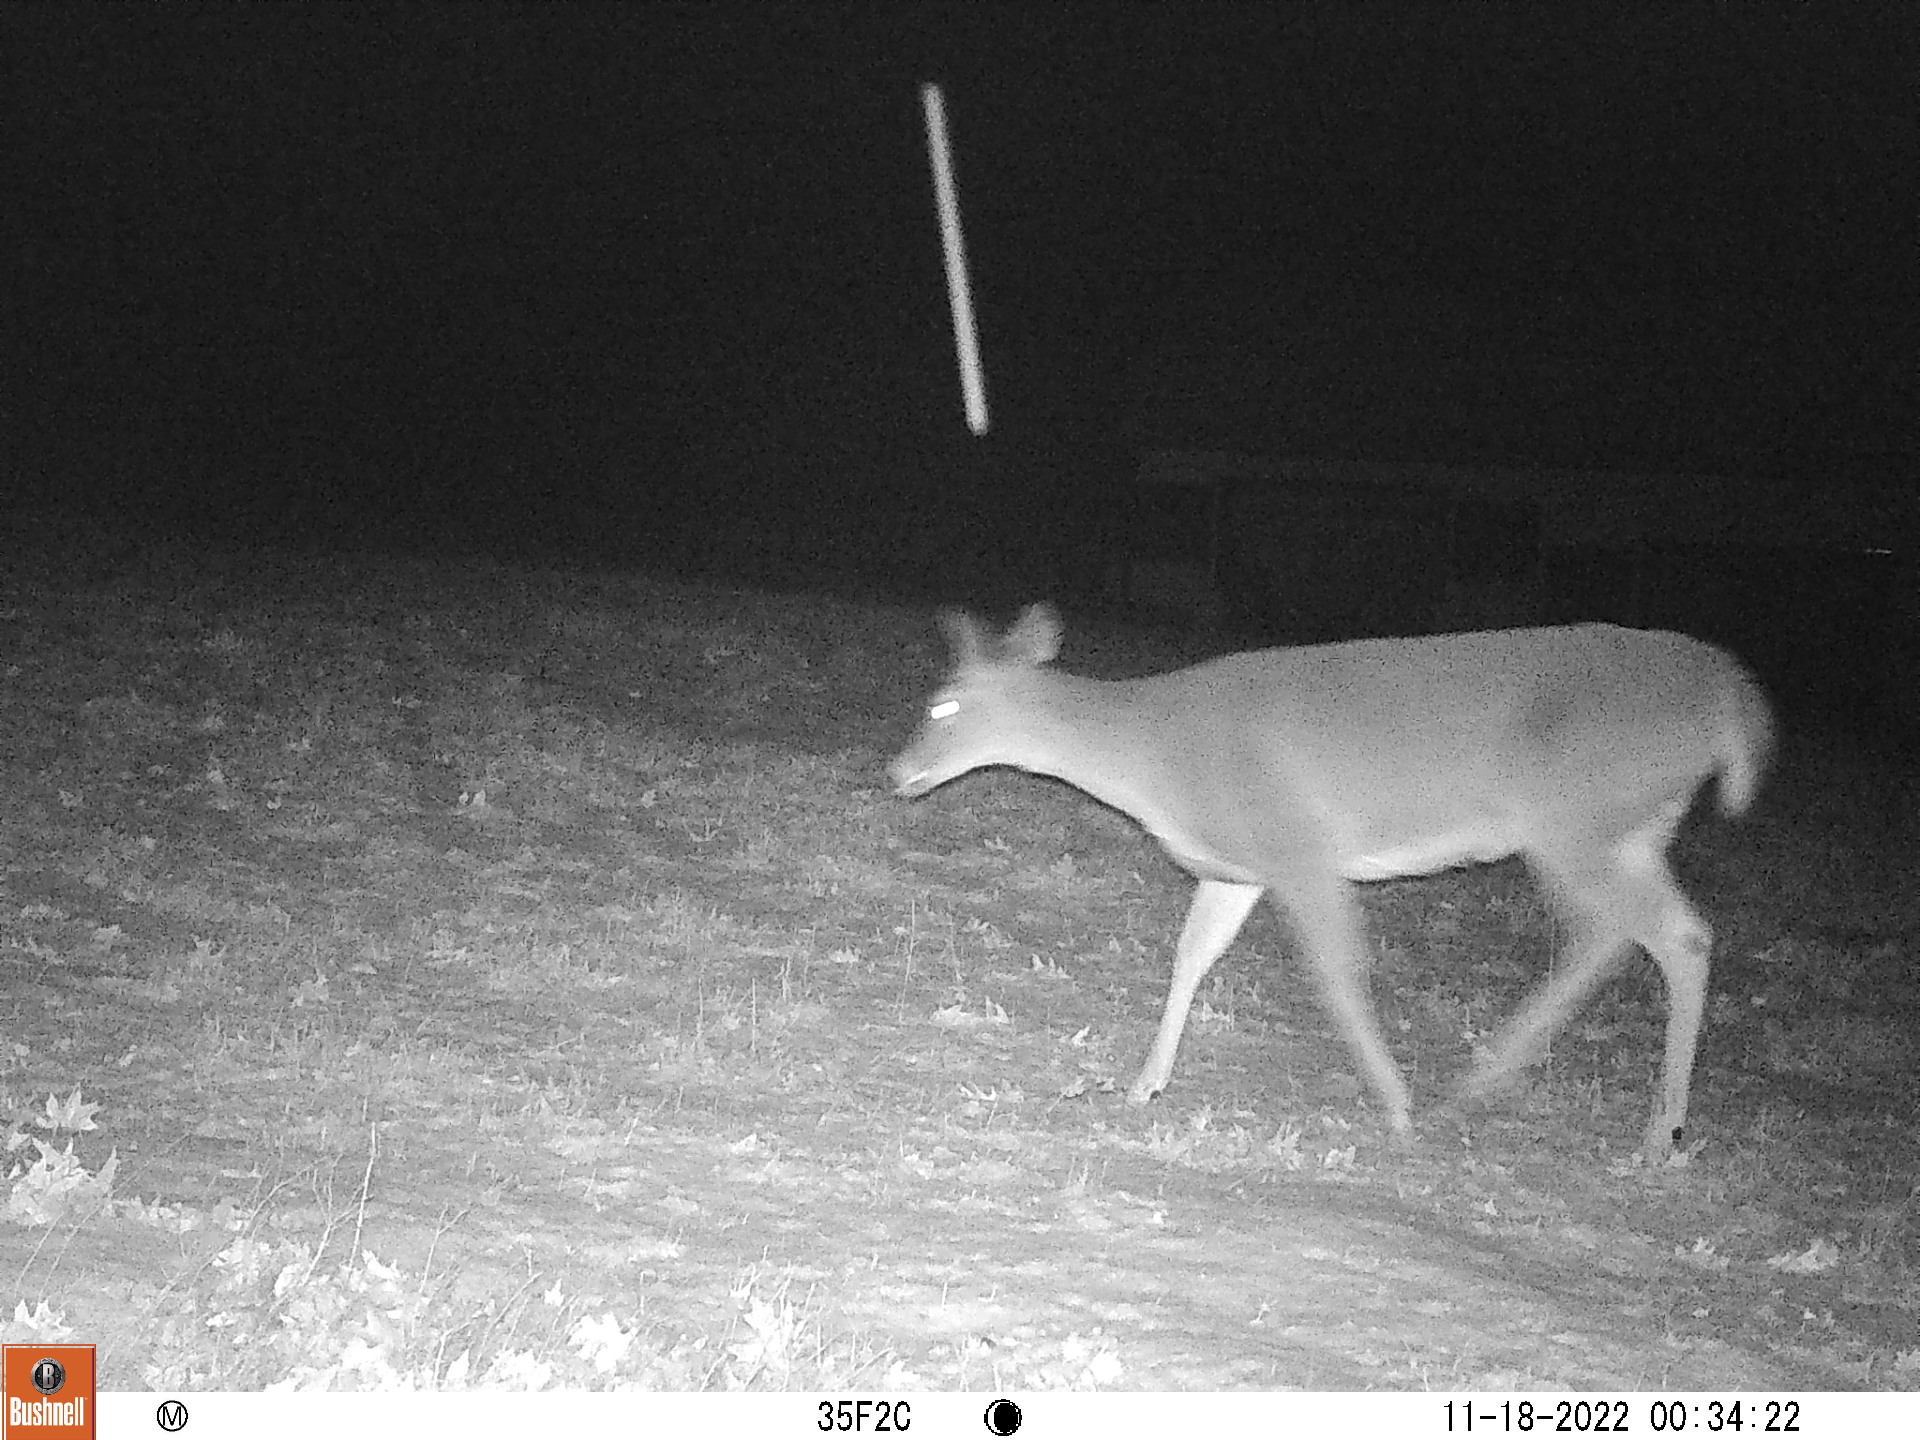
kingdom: Animalia
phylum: Chordata
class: Mammalia
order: Artiodactyla
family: Cervidae
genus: Odocoileus
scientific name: Odocoileus virginianus
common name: White-tailed deer
